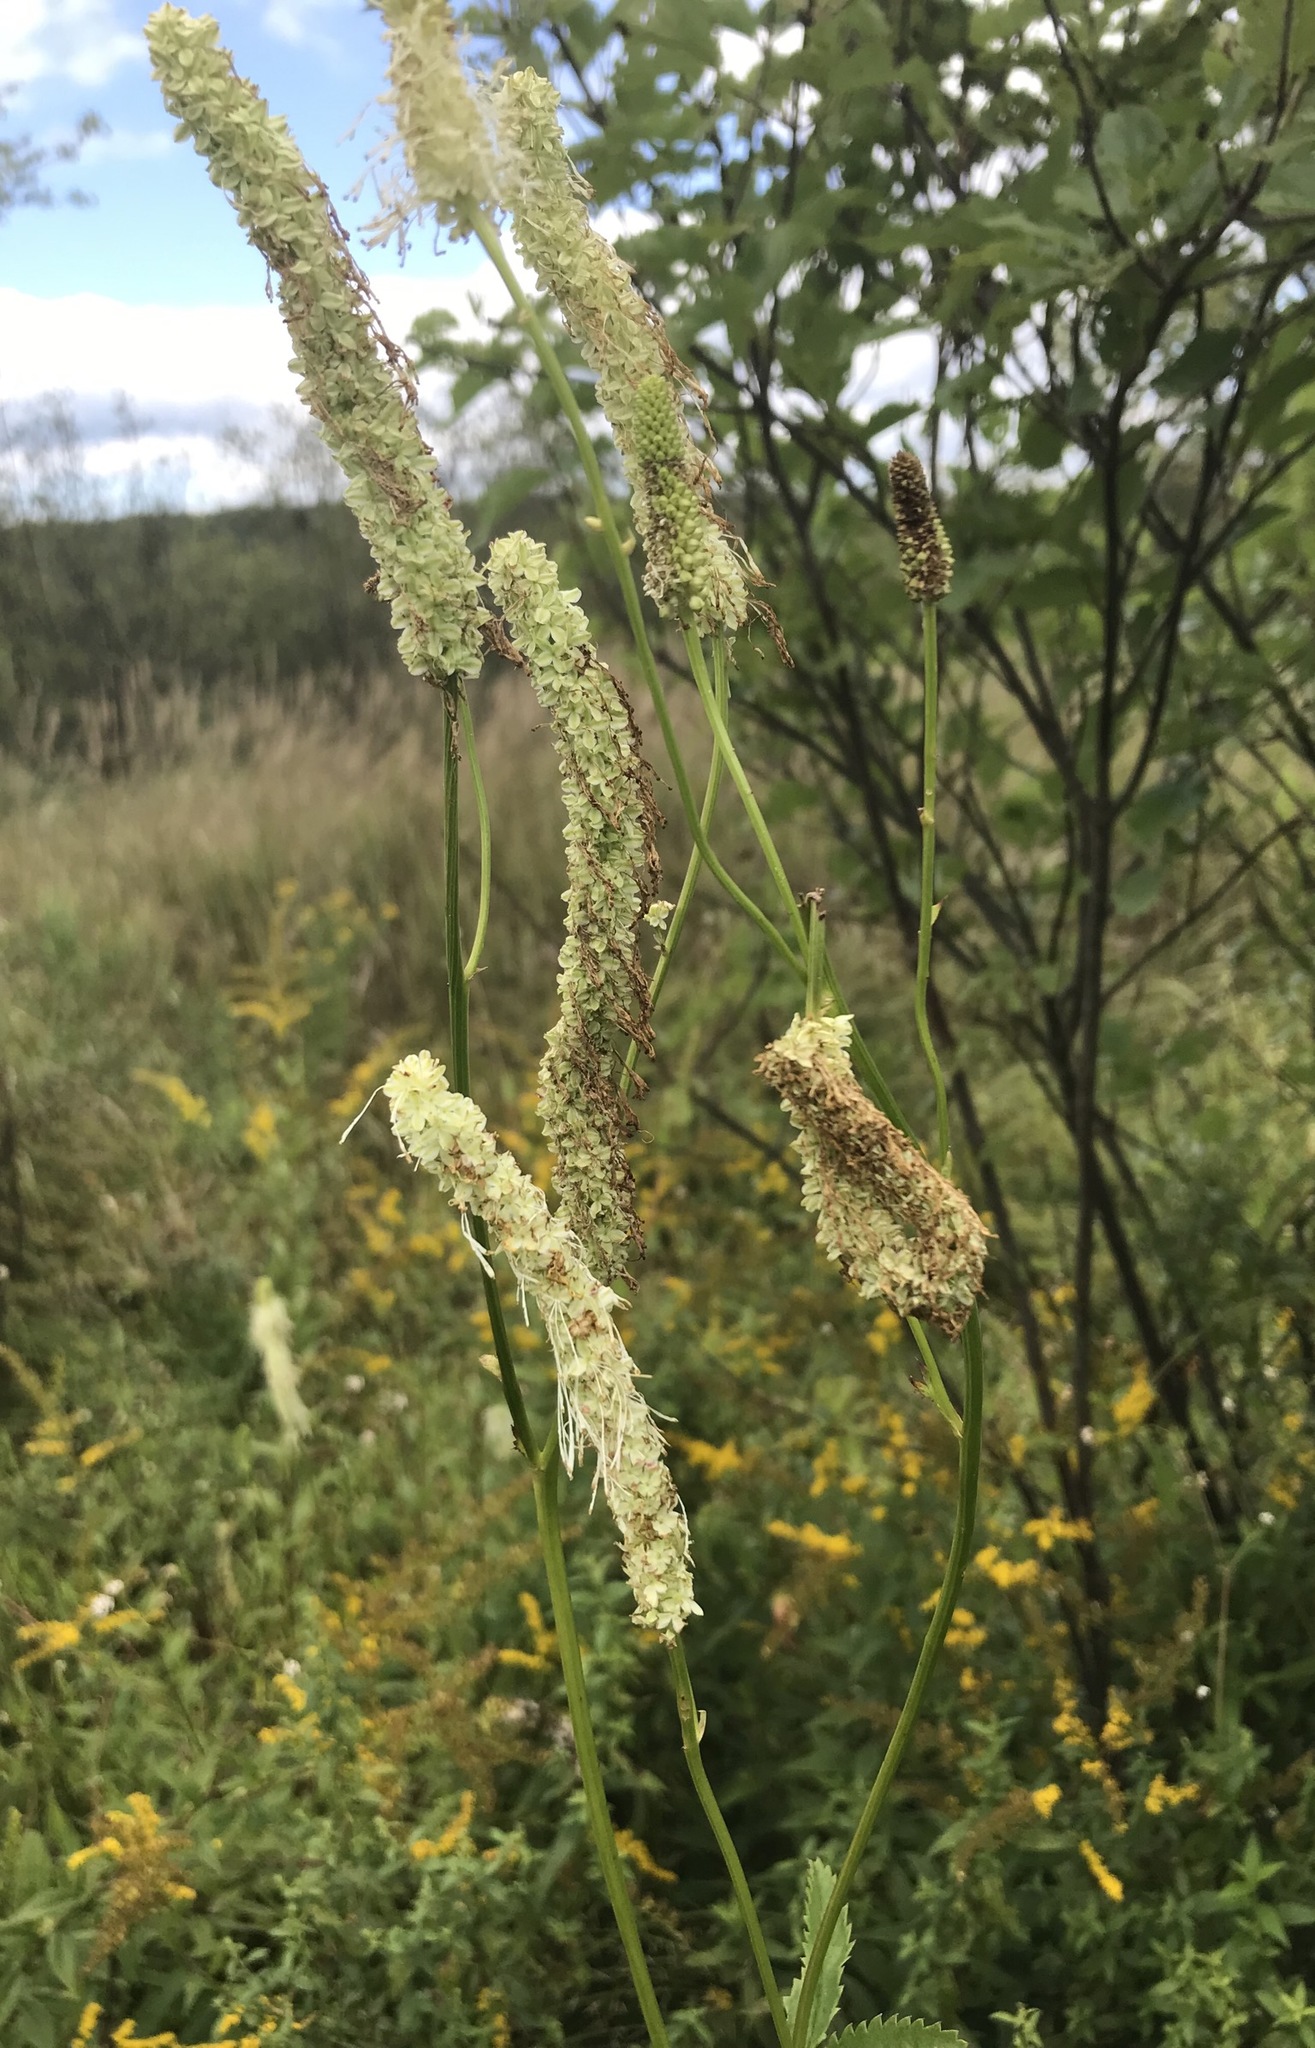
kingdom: Plantae
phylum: Tracheophyta
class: Magnoliopsida
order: Rosales
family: Rosaceae
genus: Sanguisorba
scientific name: Sanguisorba canadensis
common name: White burnet
